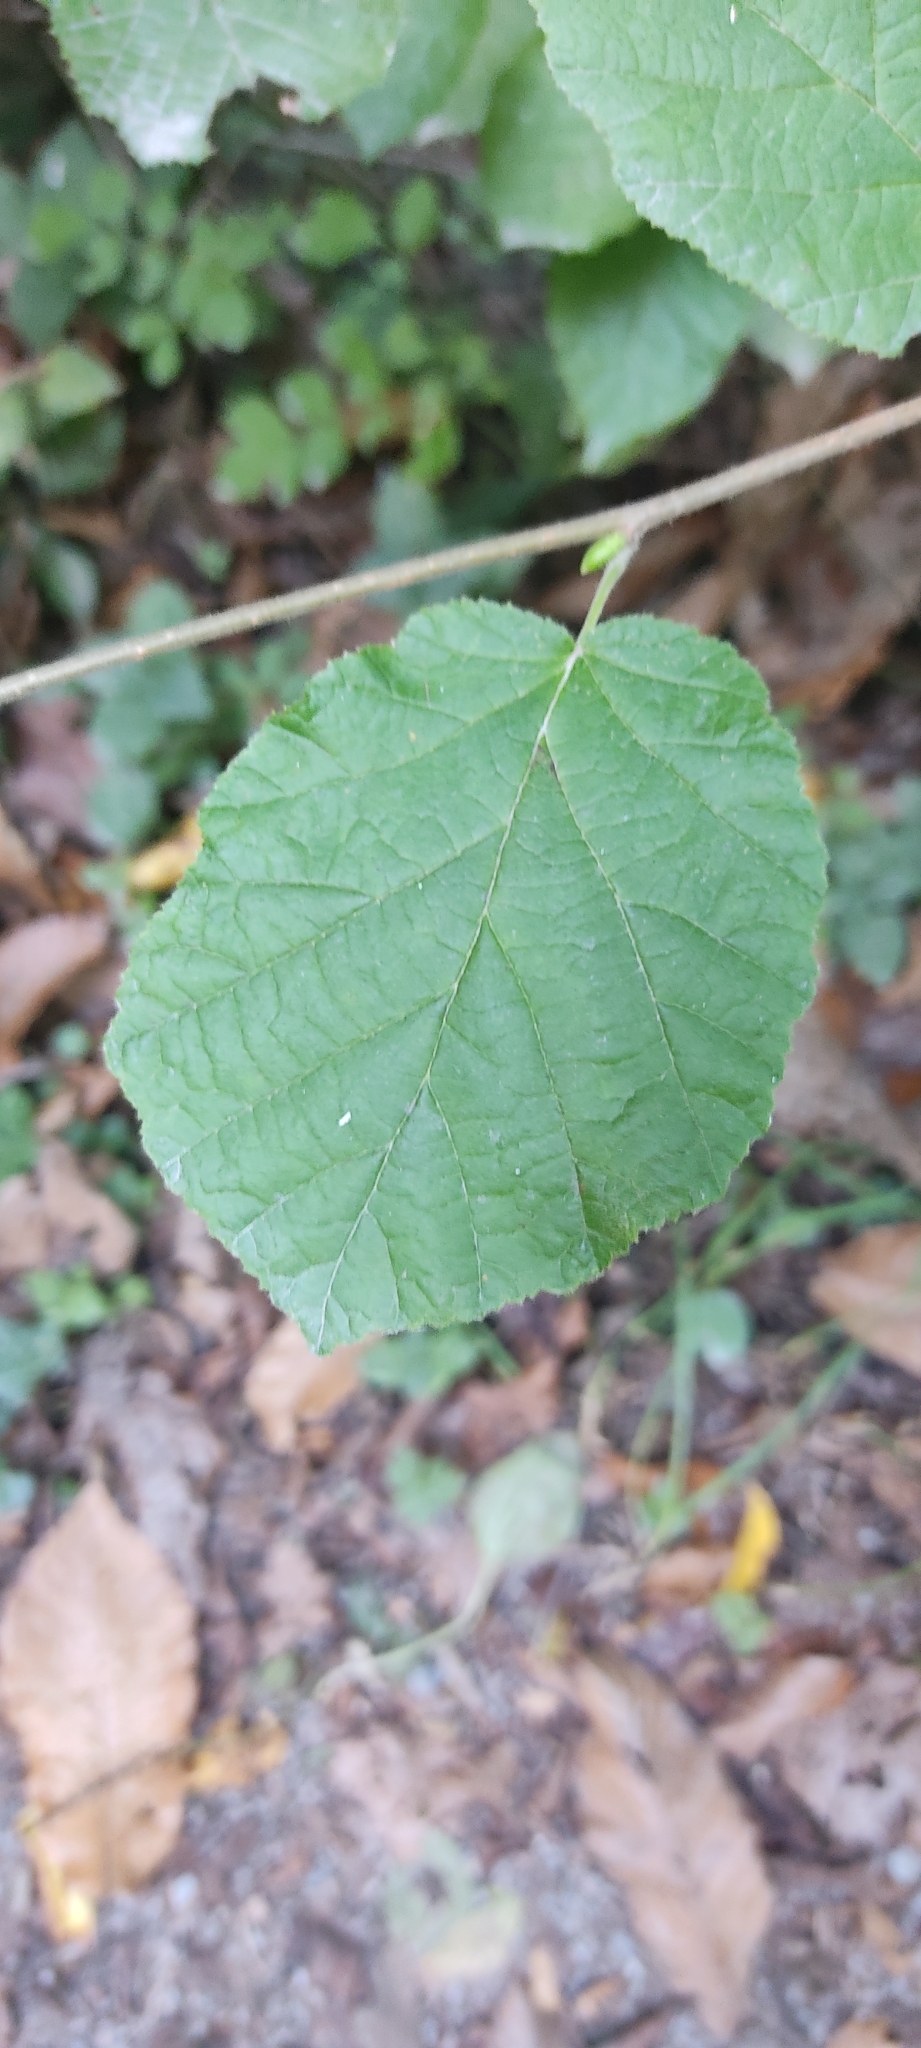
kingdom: Plantae
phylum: Tracheophyta
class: Magnoliopsida
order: Fagales
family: Betulaceae
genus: Corylus
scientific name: Corylus avellana
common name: European hazel
